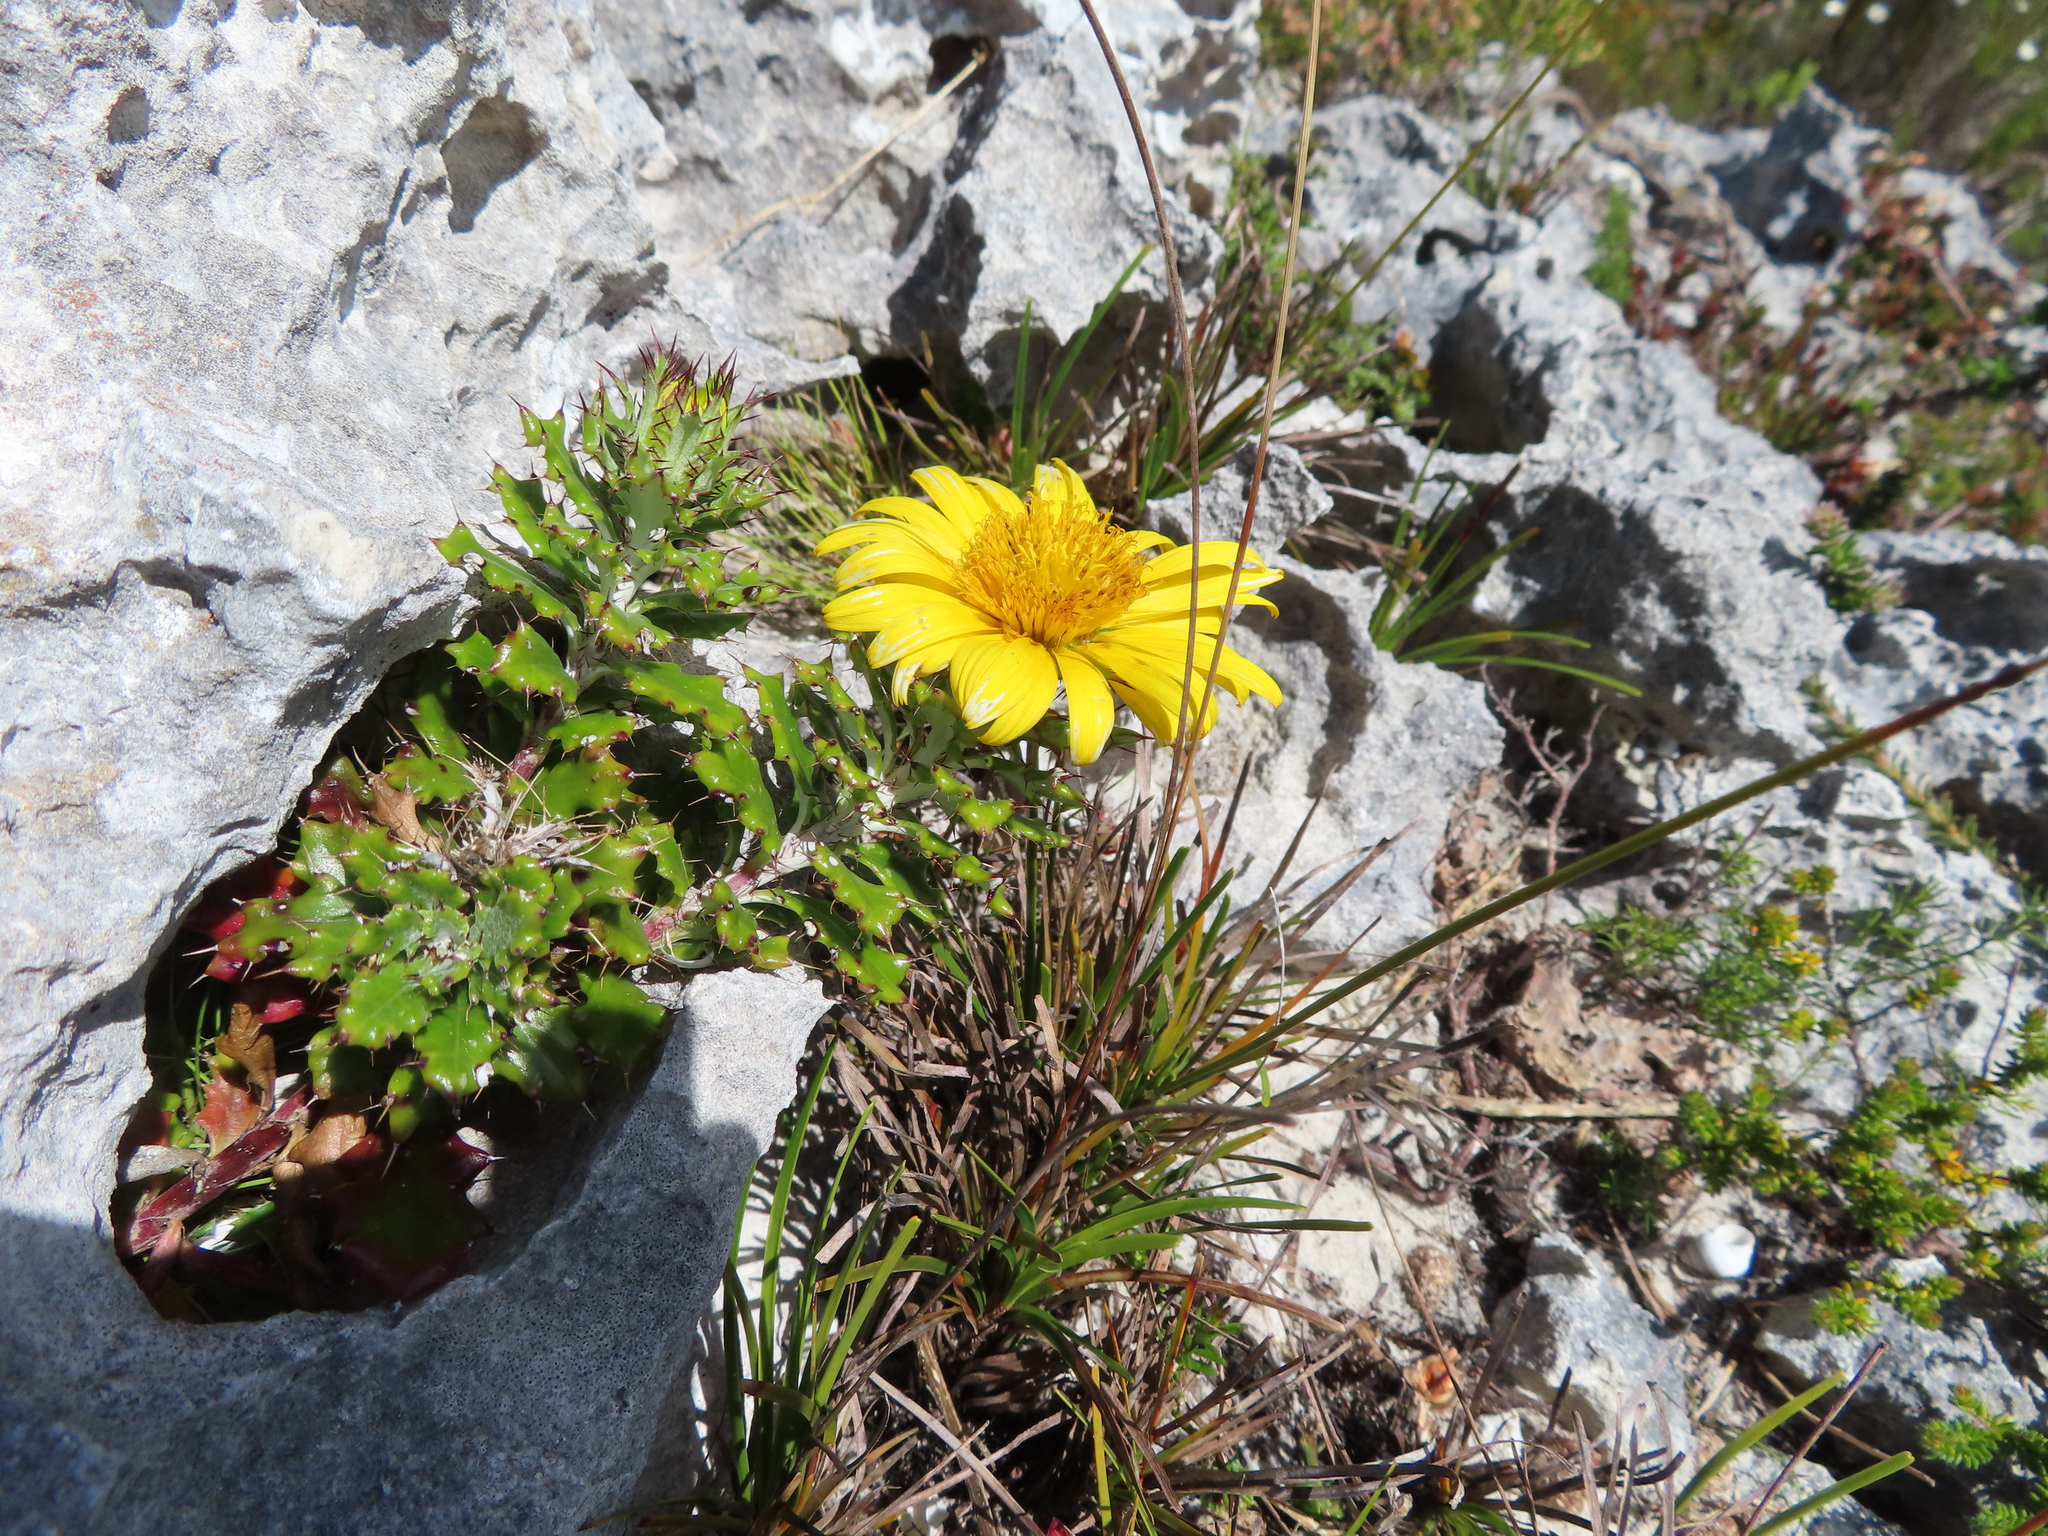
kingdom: Plantae
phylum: Tracheophyta
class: Magnoliopsida
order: Asterales
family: Asteraceae
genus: Berkheya
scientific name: Berkheya coriacea
